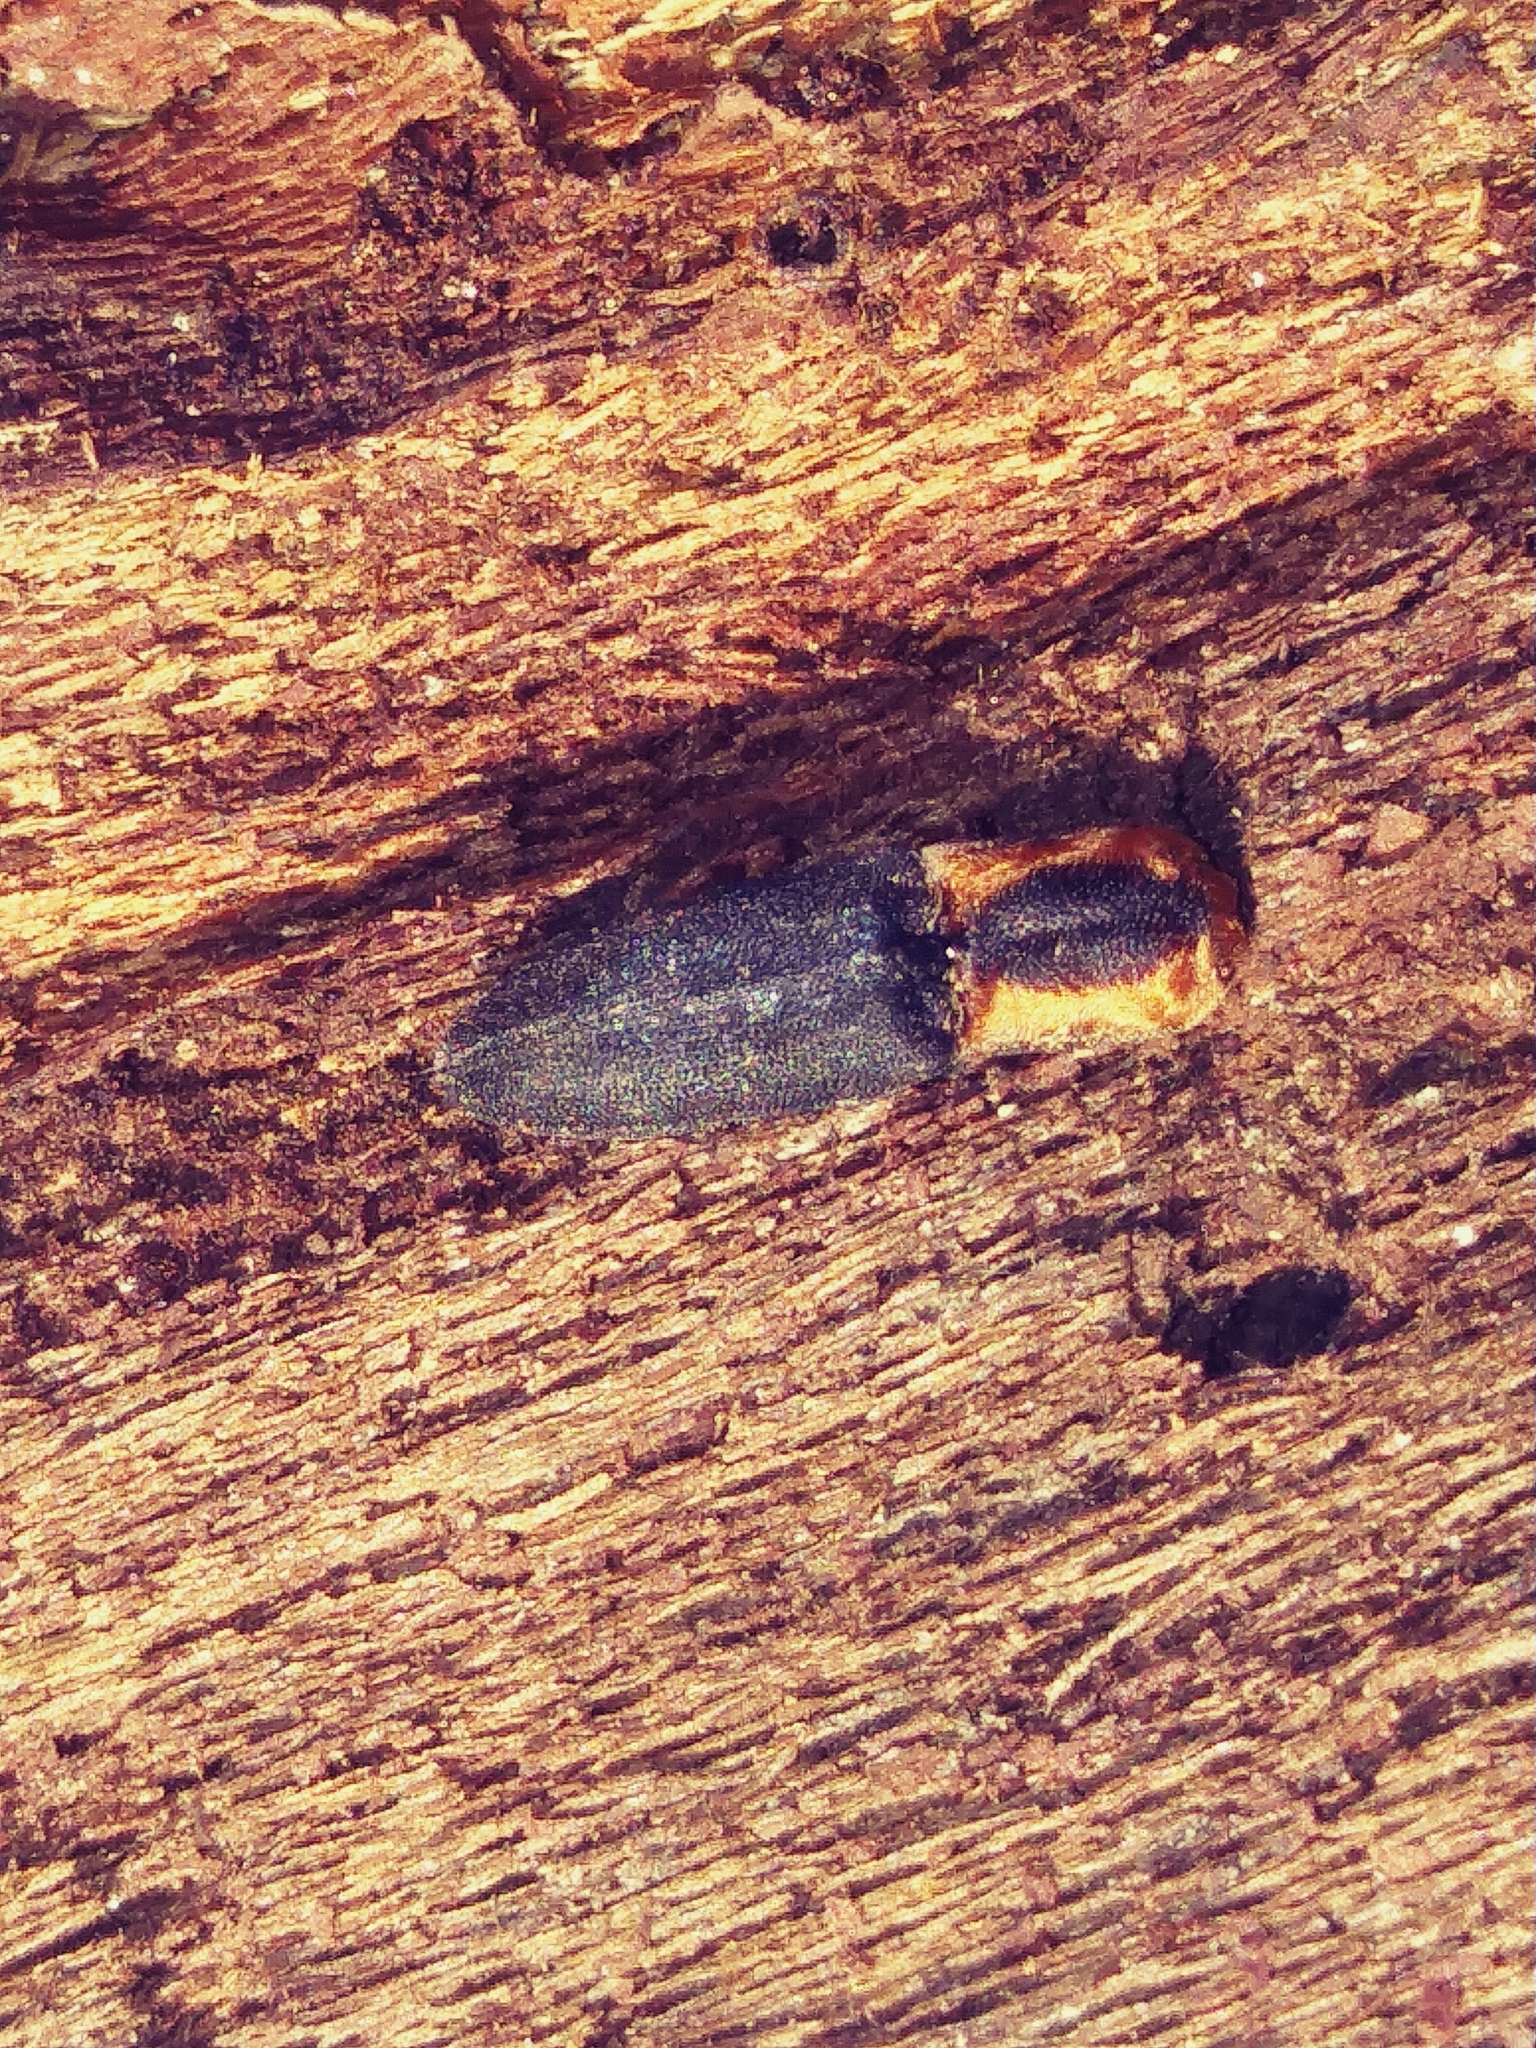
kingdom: Animalia
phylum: Arthropoda
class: Insecta
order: Coleoptera
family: Elateridae
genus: Lacon
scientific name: Lacon discoideus
